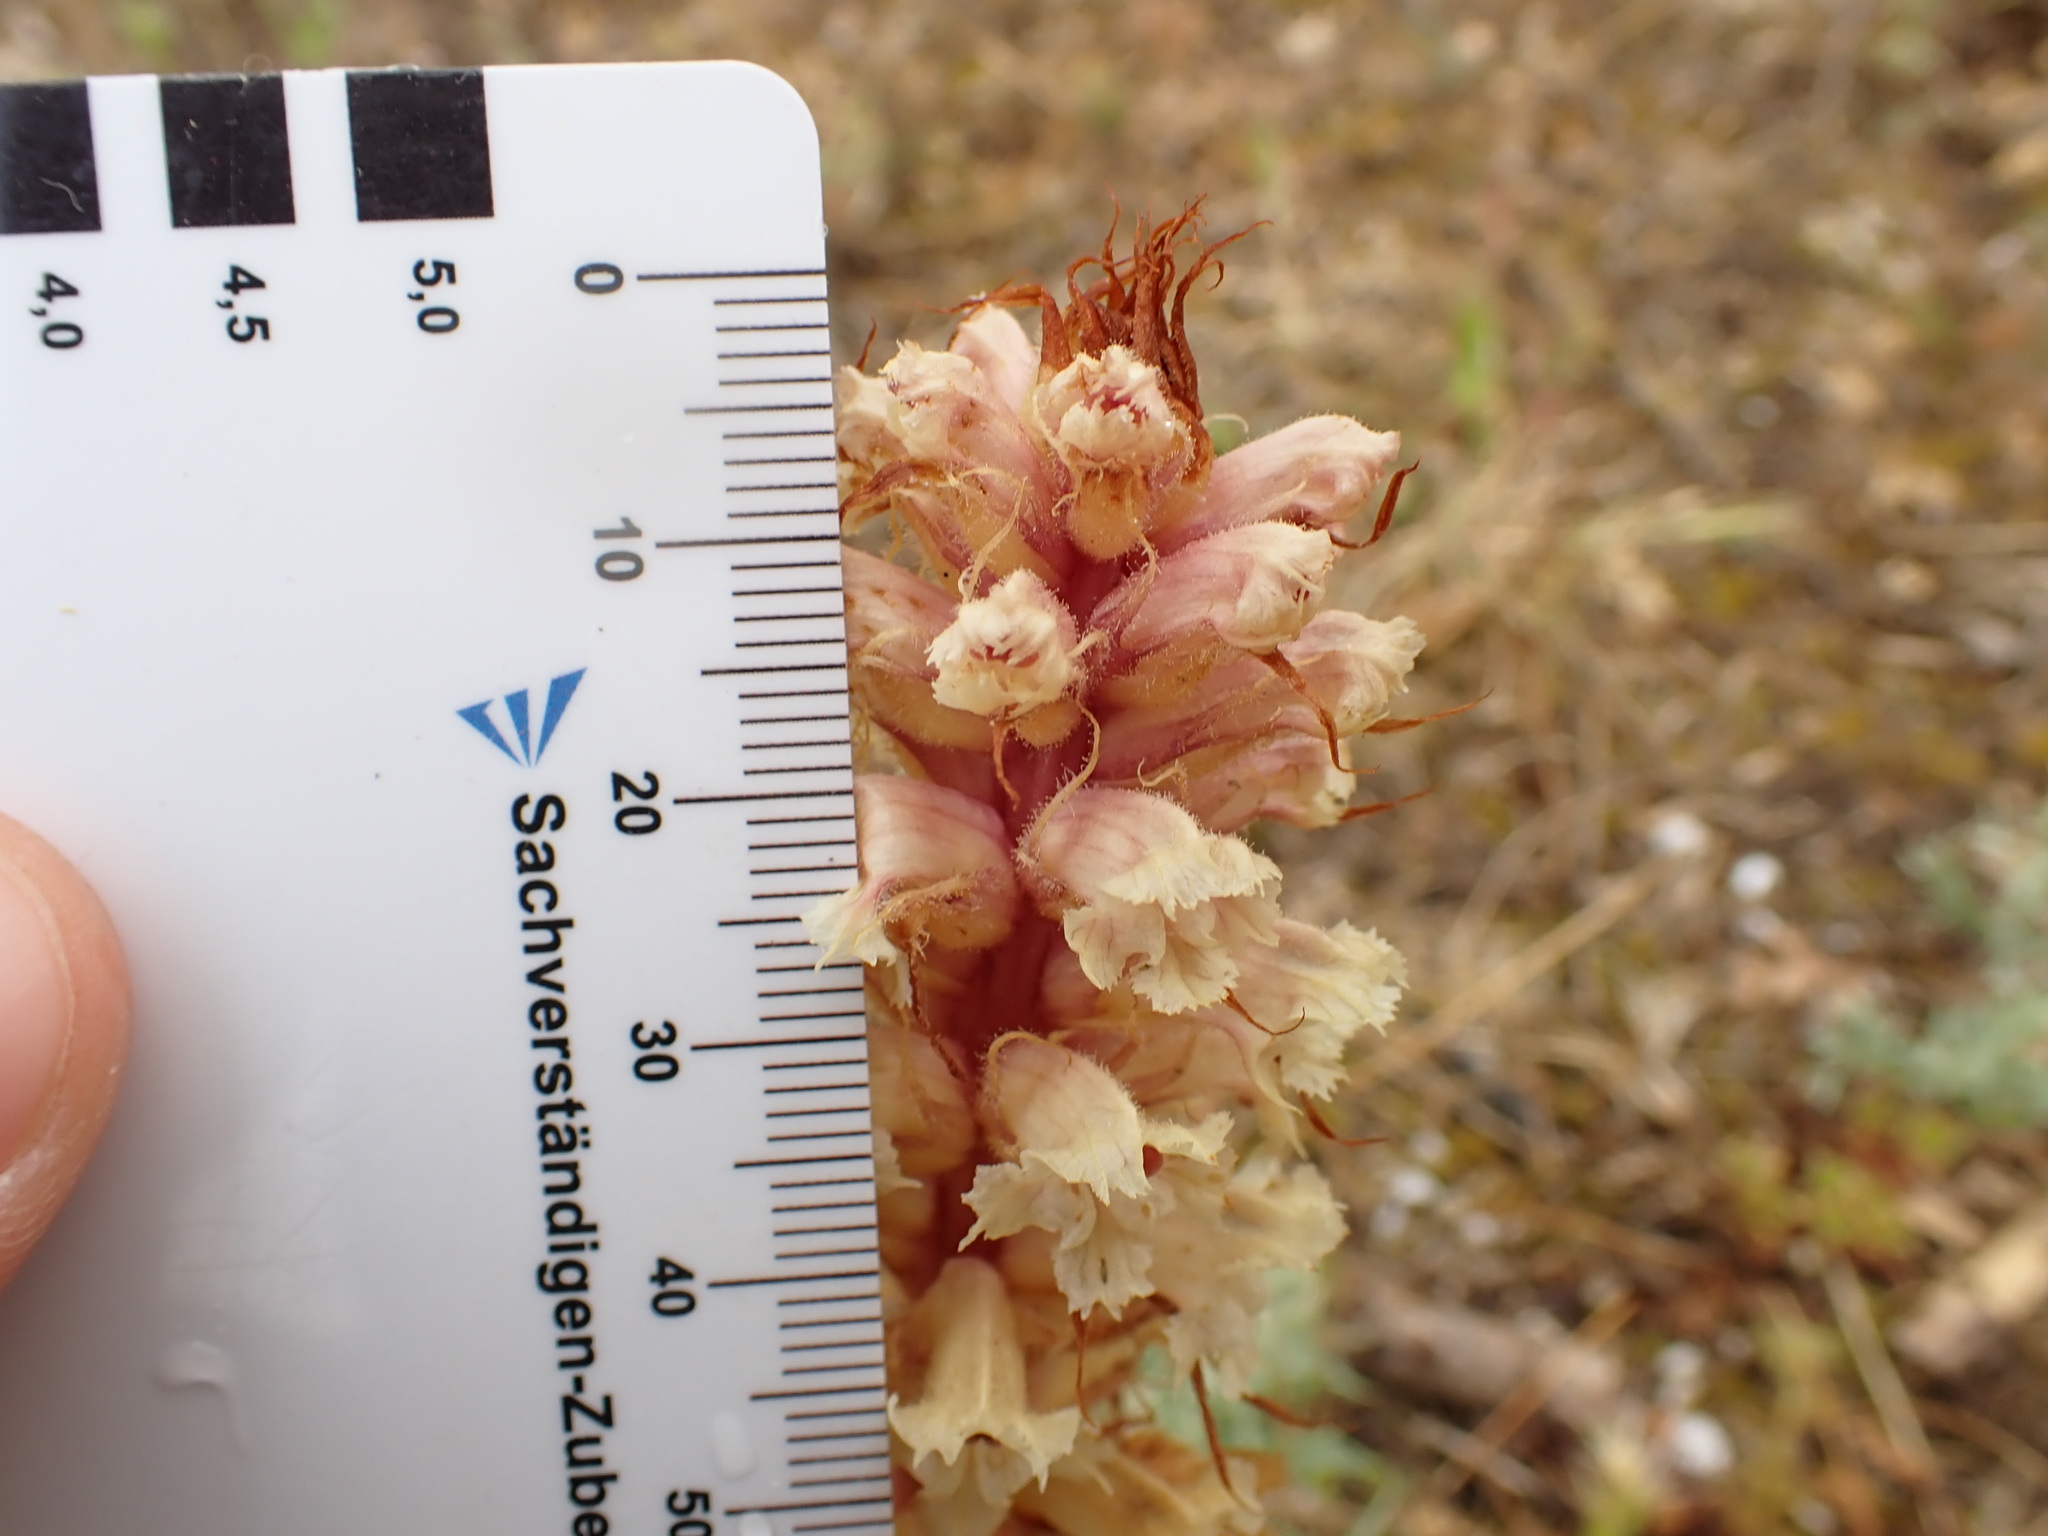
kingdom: Plantae
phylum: Tracheophyta
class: Magnoliopsida
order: Lamiales
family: Orobanchaceae
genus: Orobanche
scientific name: Orobanche amethystea
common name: Amethyst broomrape
